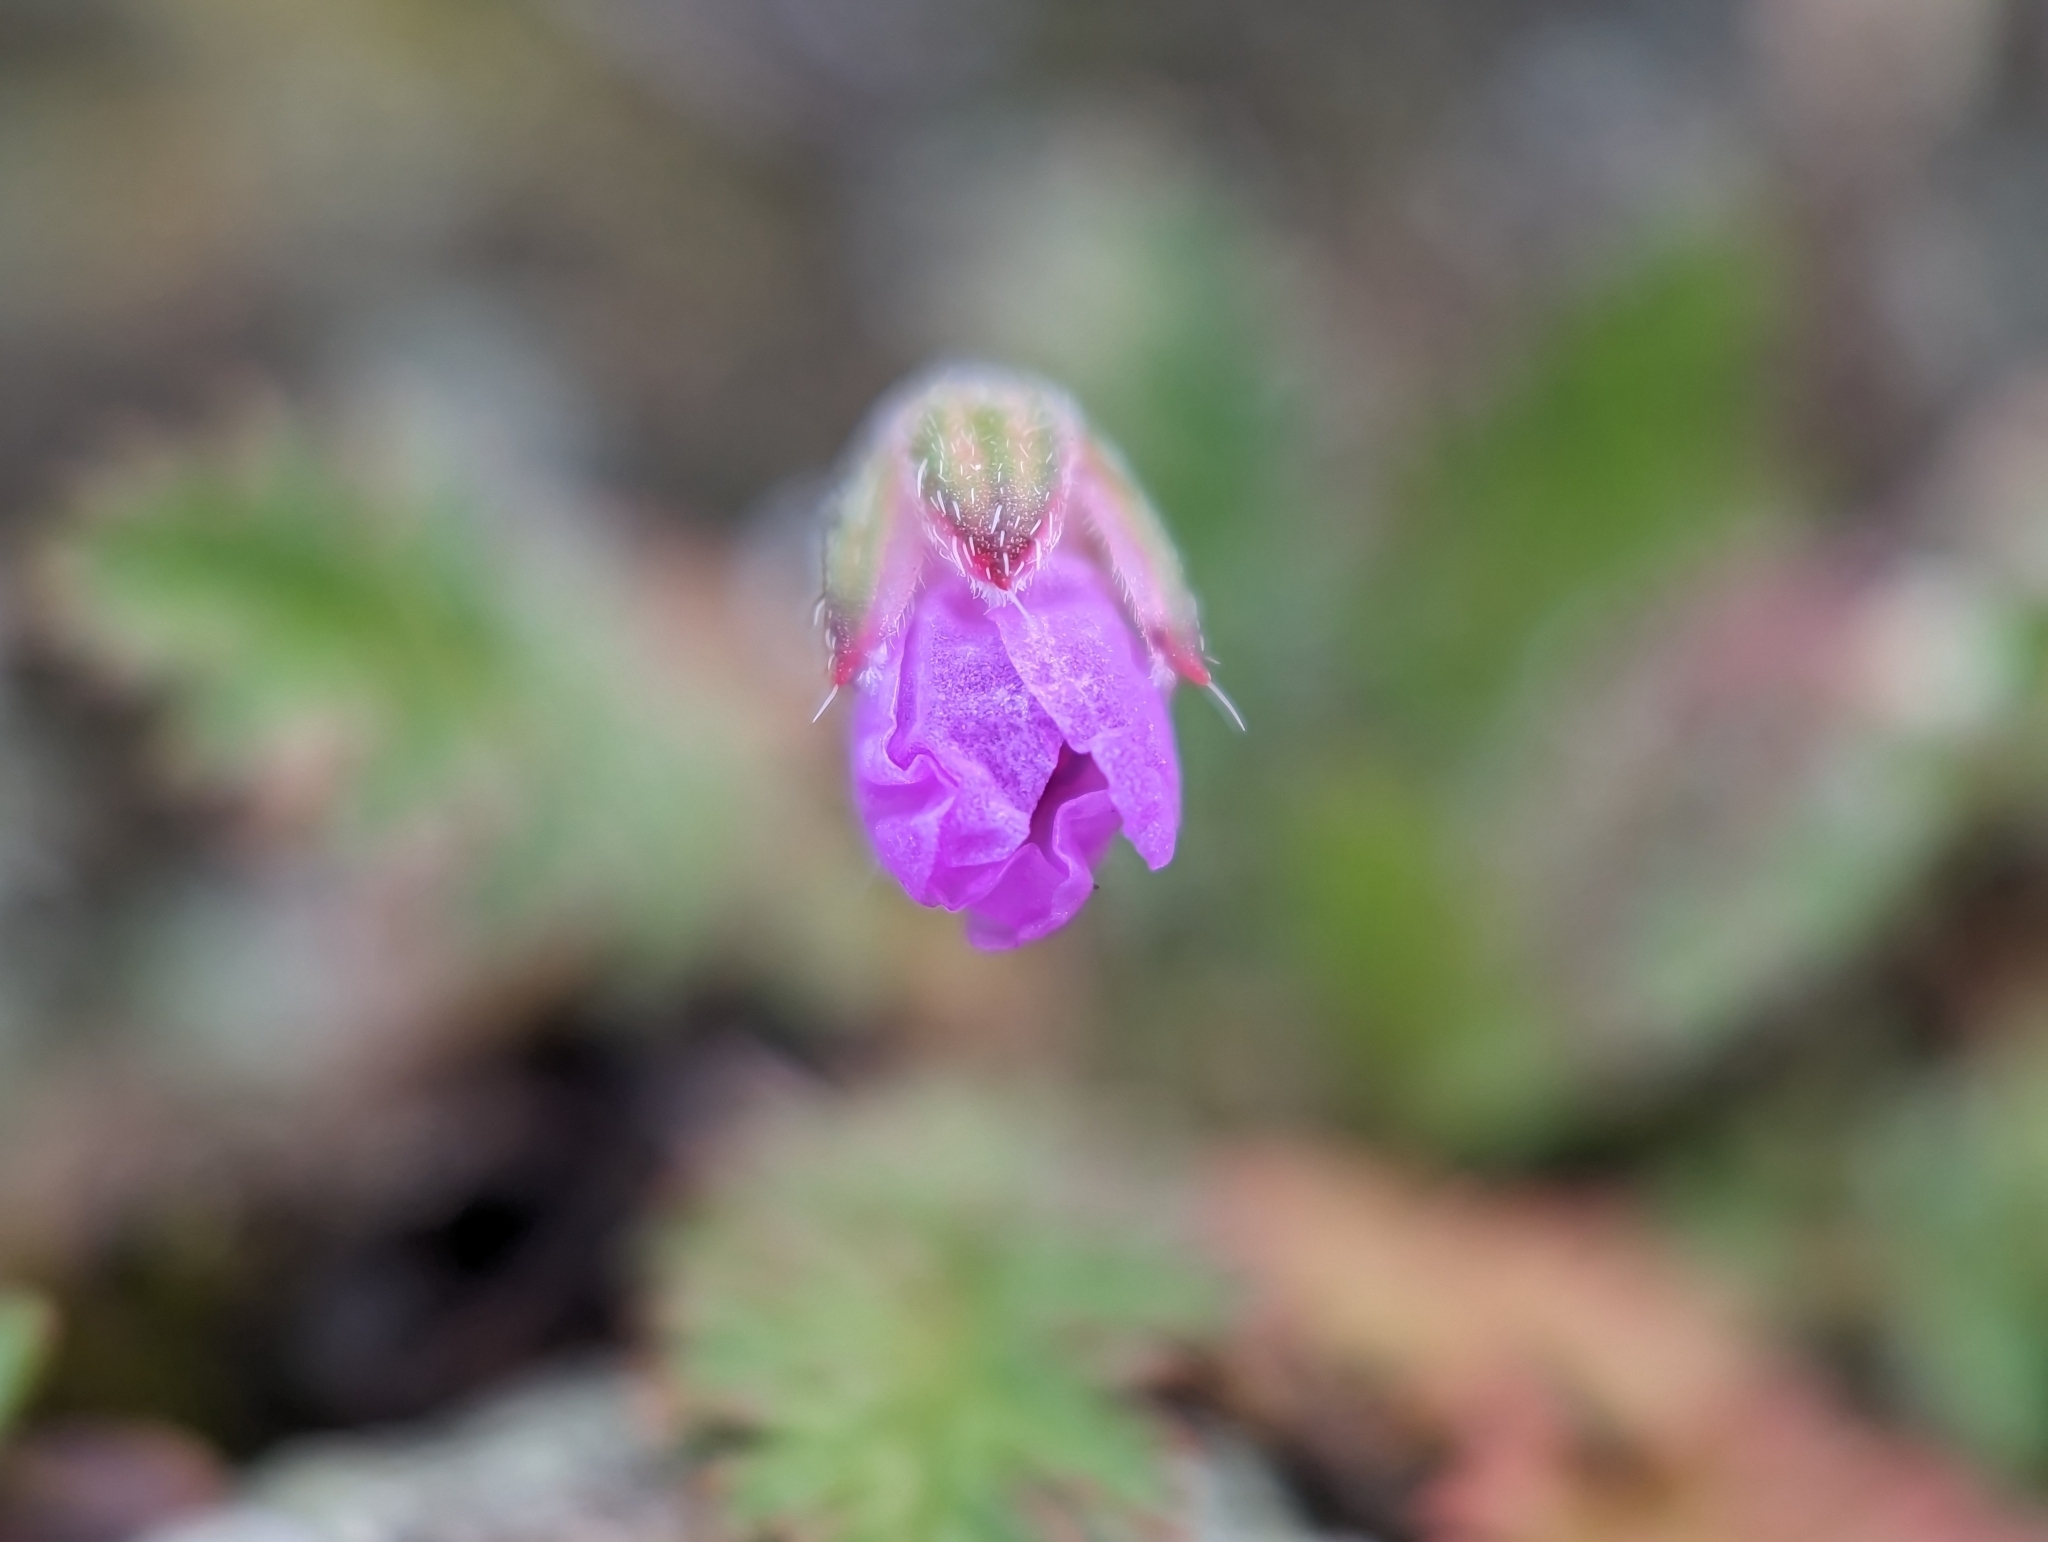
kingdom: Plantae
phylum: Tracheophyta
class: Magnoliopsida
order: Geraniales
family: Geraniaceae
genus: Erodium
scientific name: Erodium cicutarium
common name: Common stork's-bill
